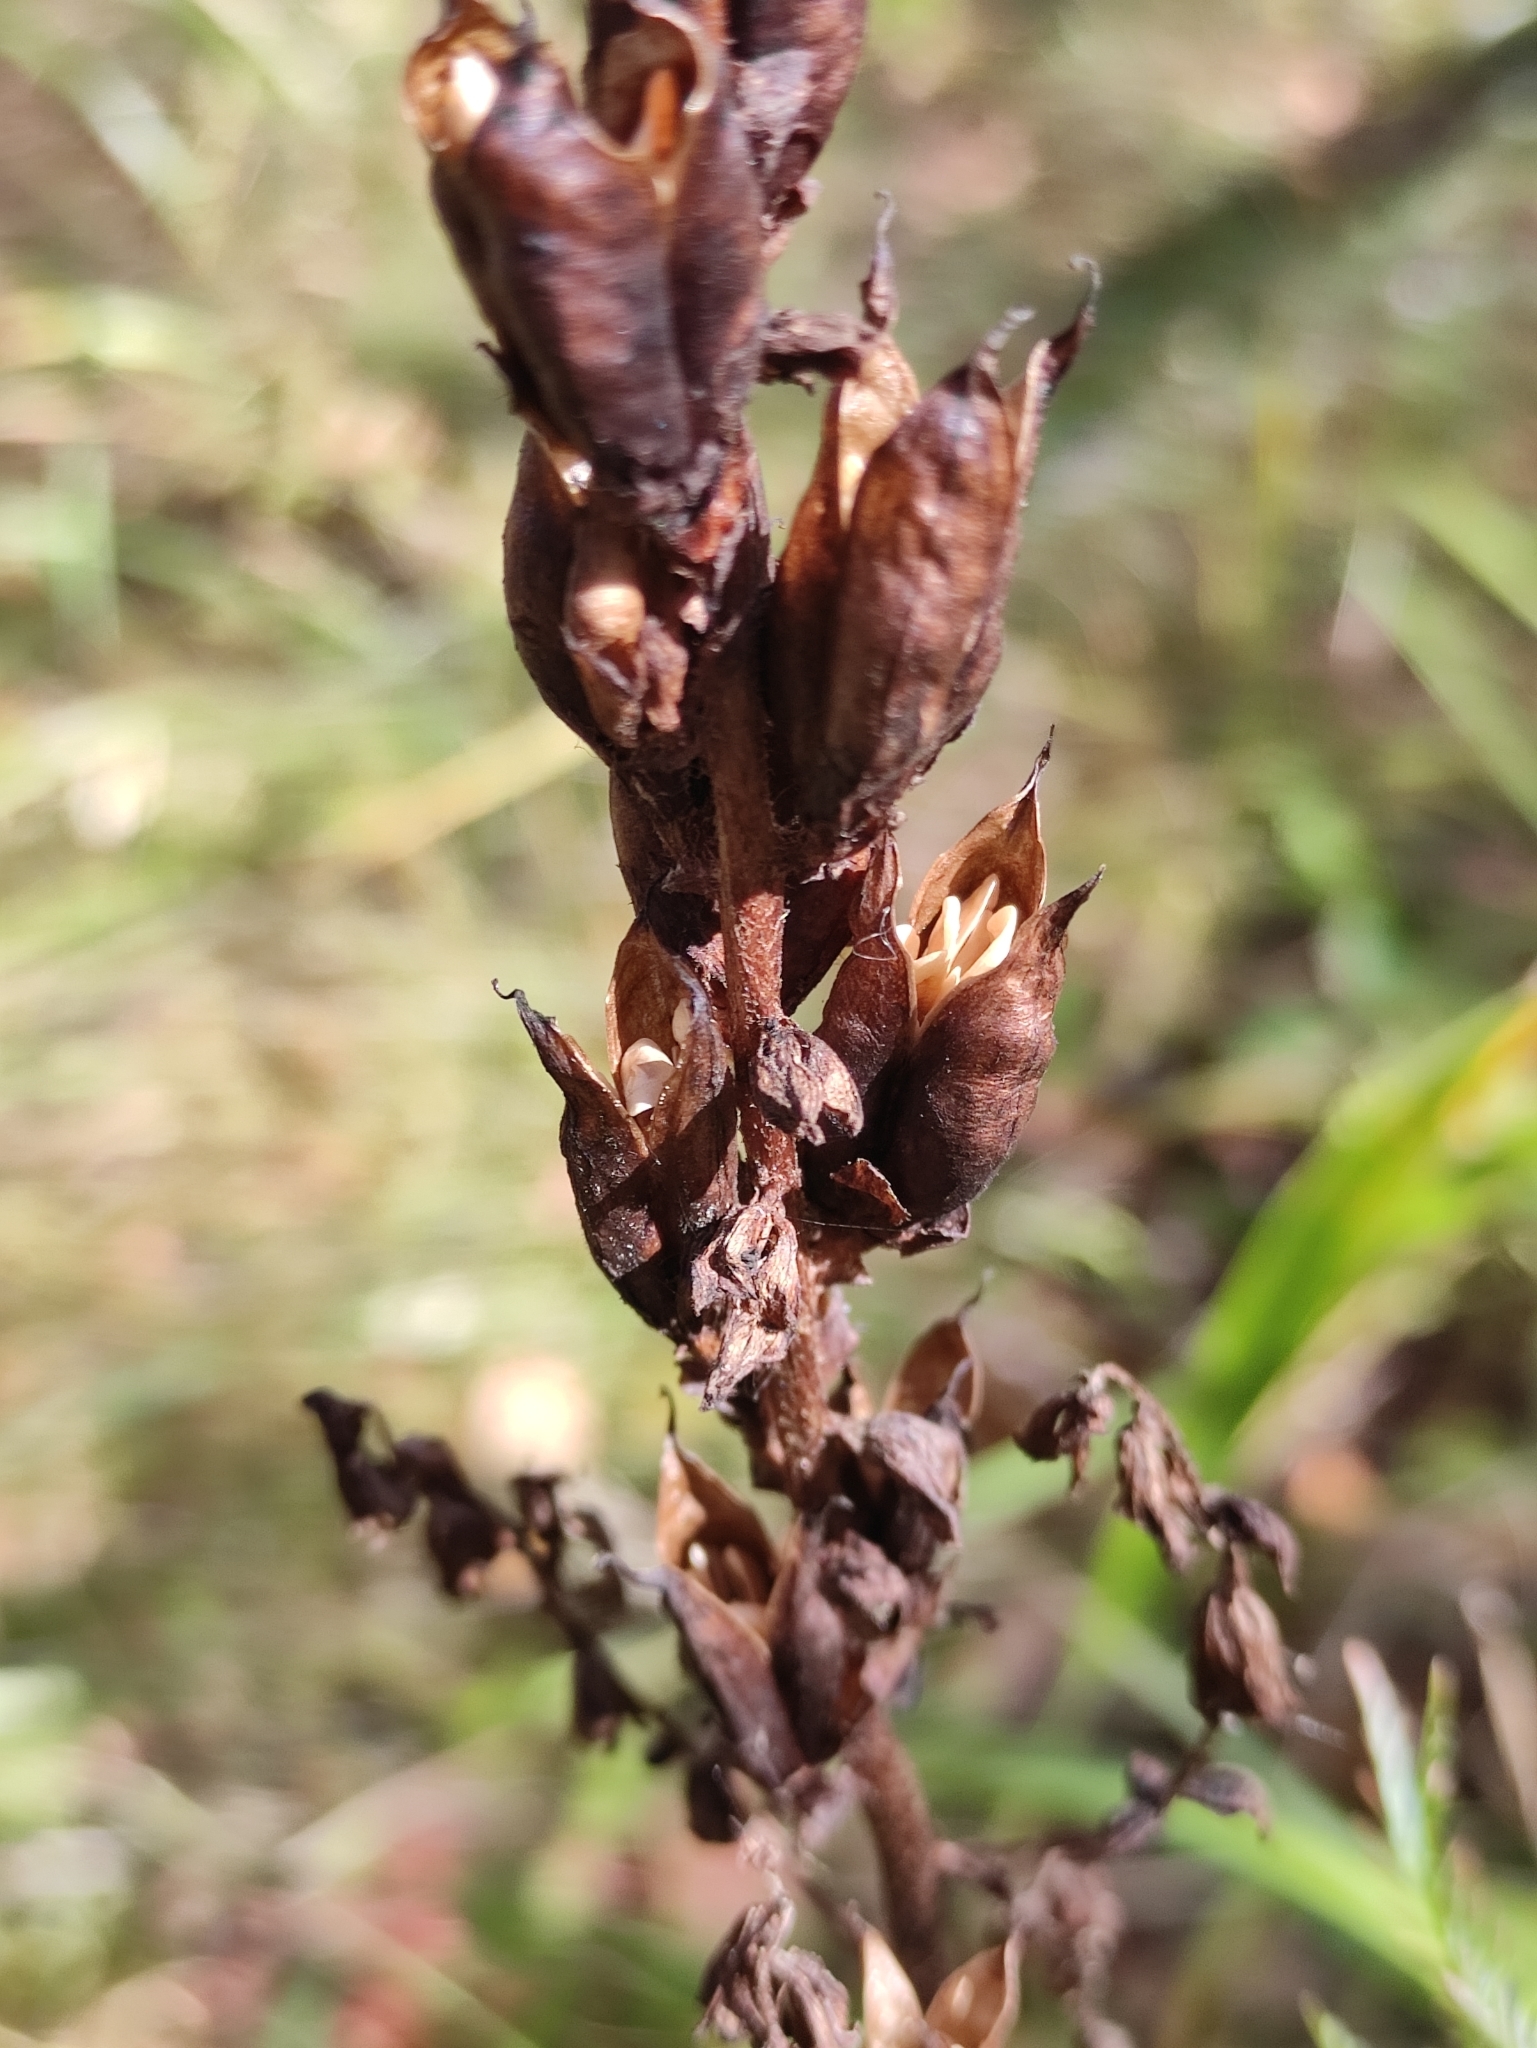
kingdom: Plantae
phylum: Tracheophyta
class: Liliopsida
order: Liliales
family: Melanthiaceae
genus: Veratrum
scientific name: Veratrum nigrum
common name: Black veratrum
